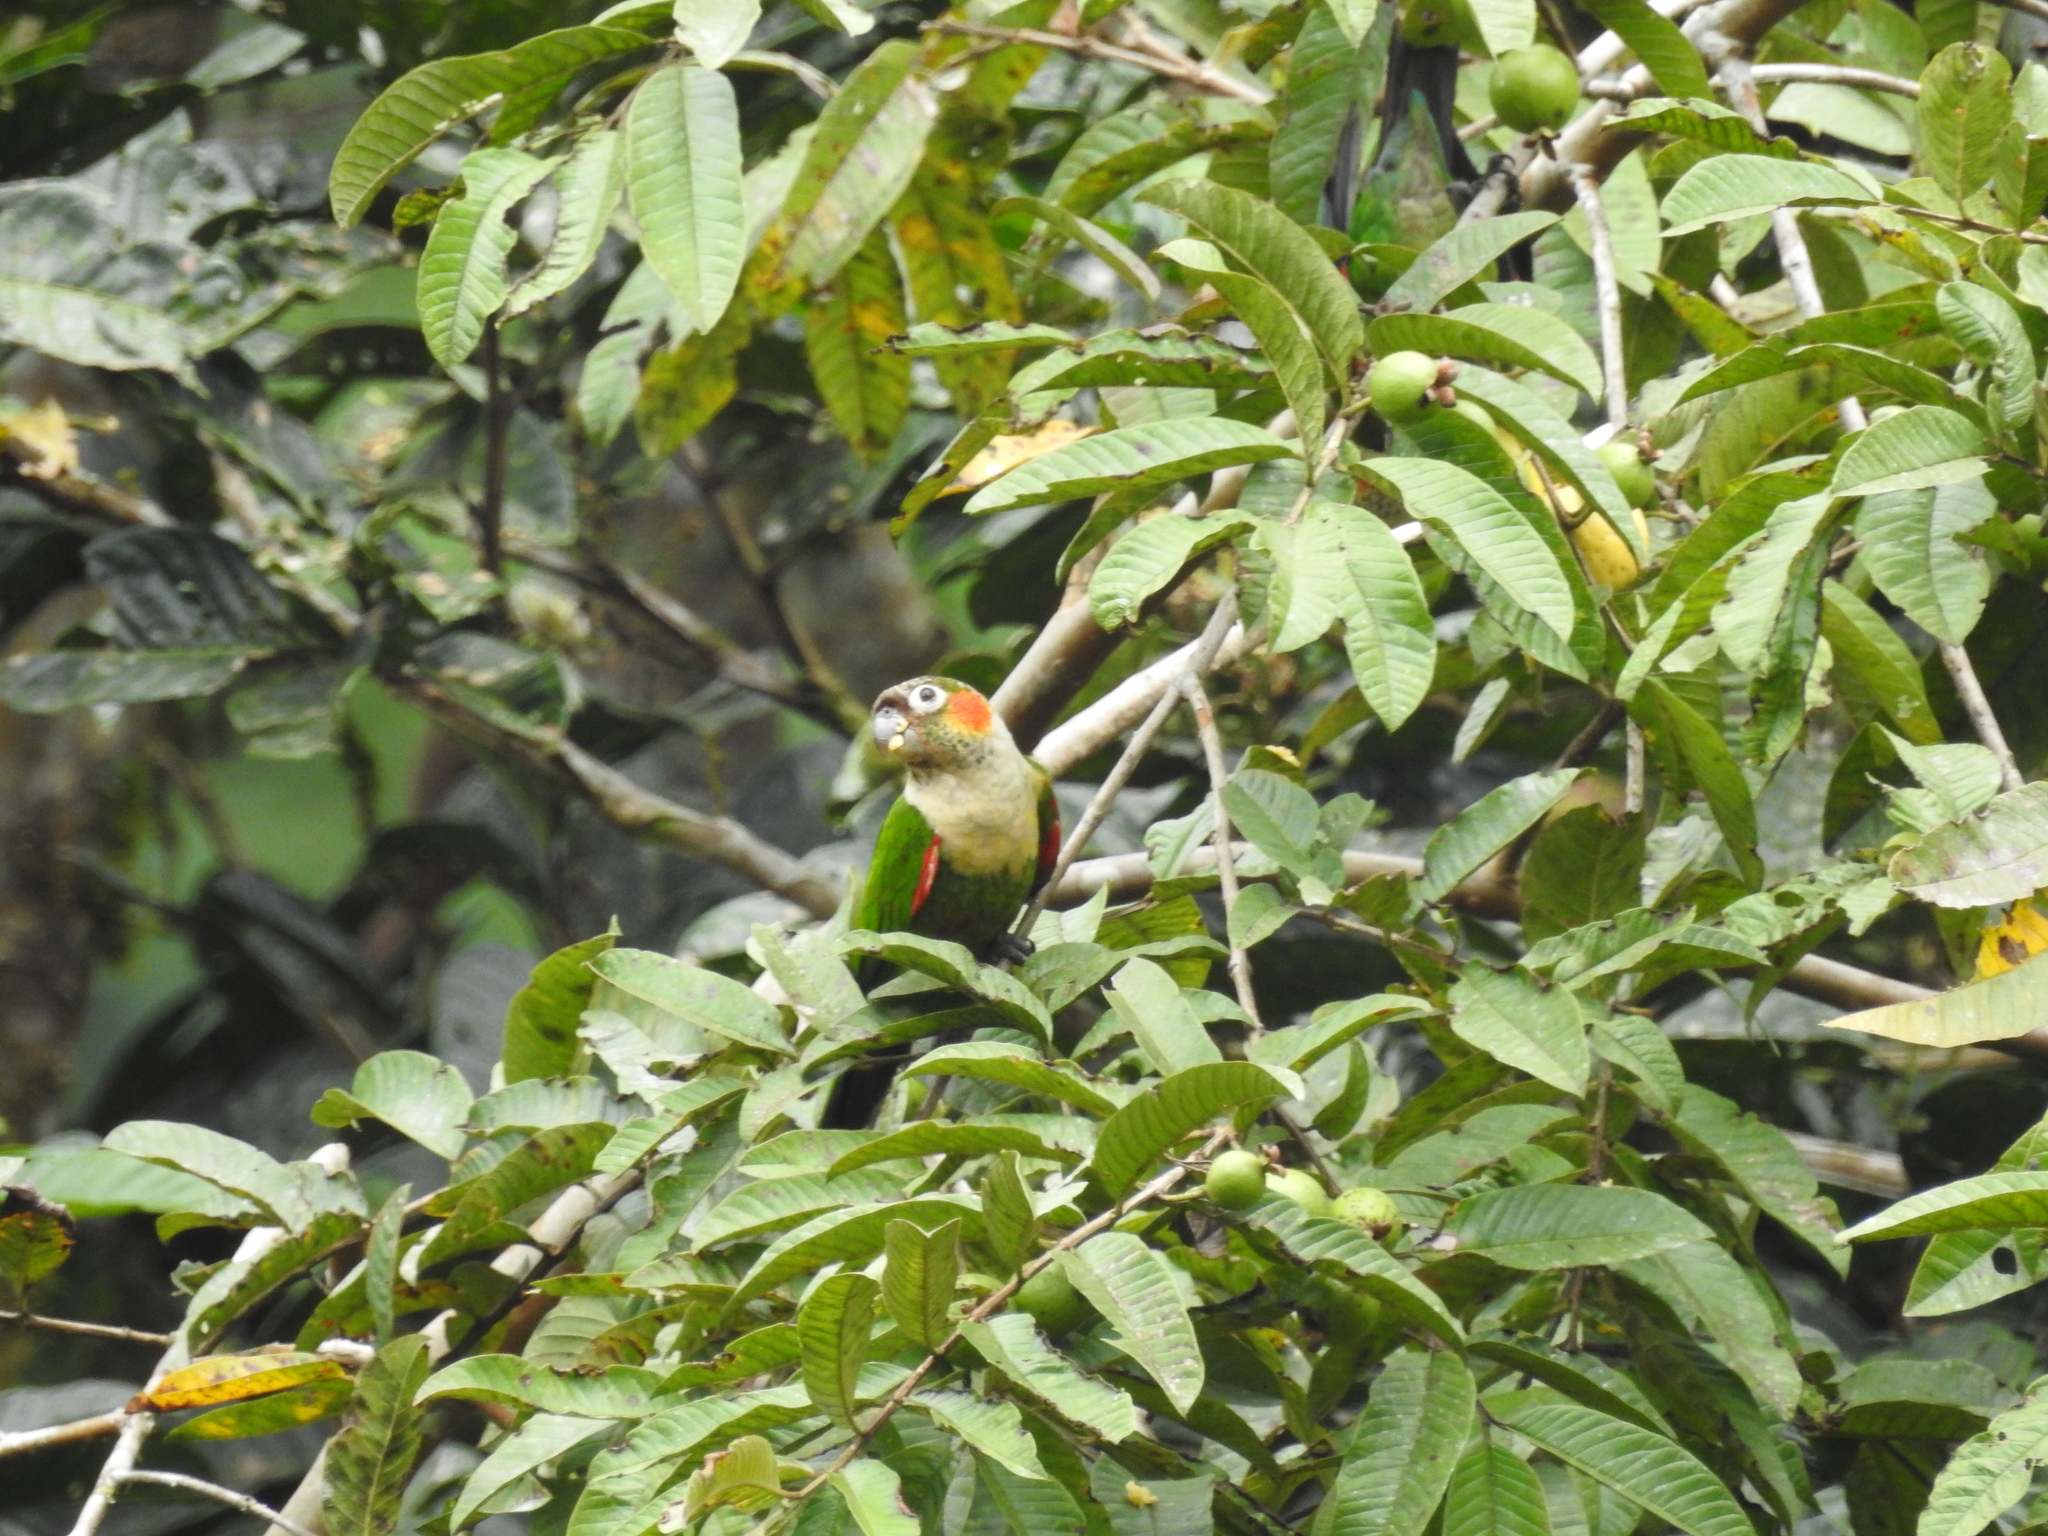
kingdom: Animalia
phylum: Chordata
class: Aves
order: Psittaciformes
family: Psittacidae
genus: Pyrrhura
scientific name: Pyrrhura albipectus
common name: White-breasted parakeet
